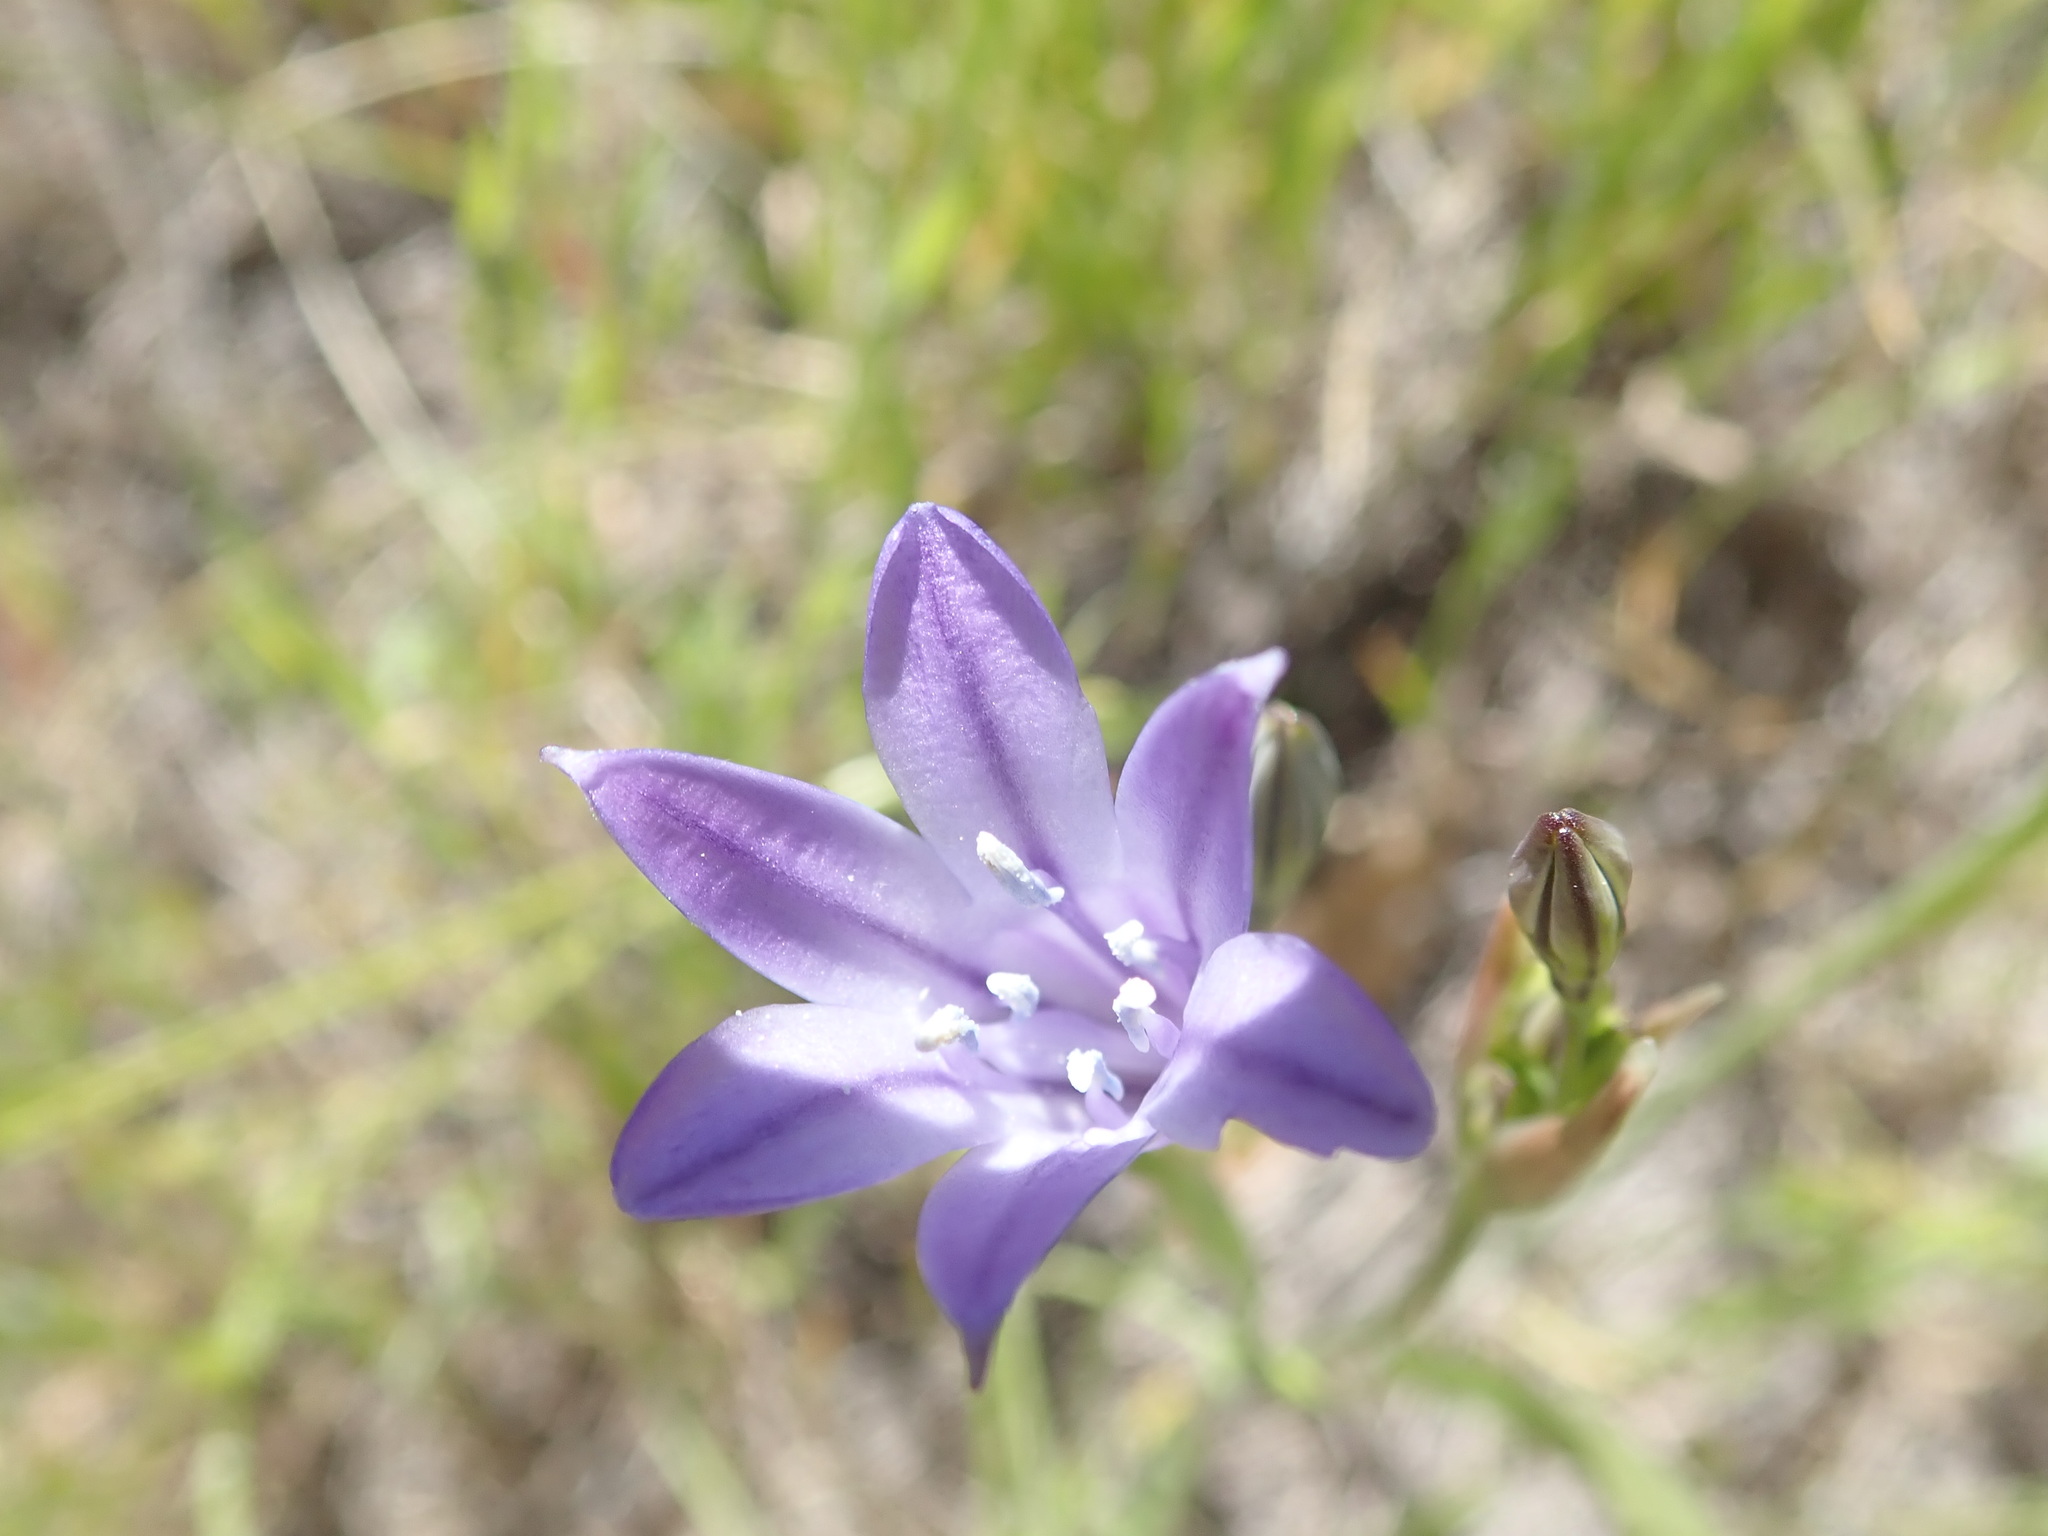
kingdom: Plantae
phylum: Tracheophyta
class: Liliopsida
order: Asparagales
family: Asparagaceae
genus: Triteleia
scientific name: Triteleia laxa
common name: Triplet-lily
